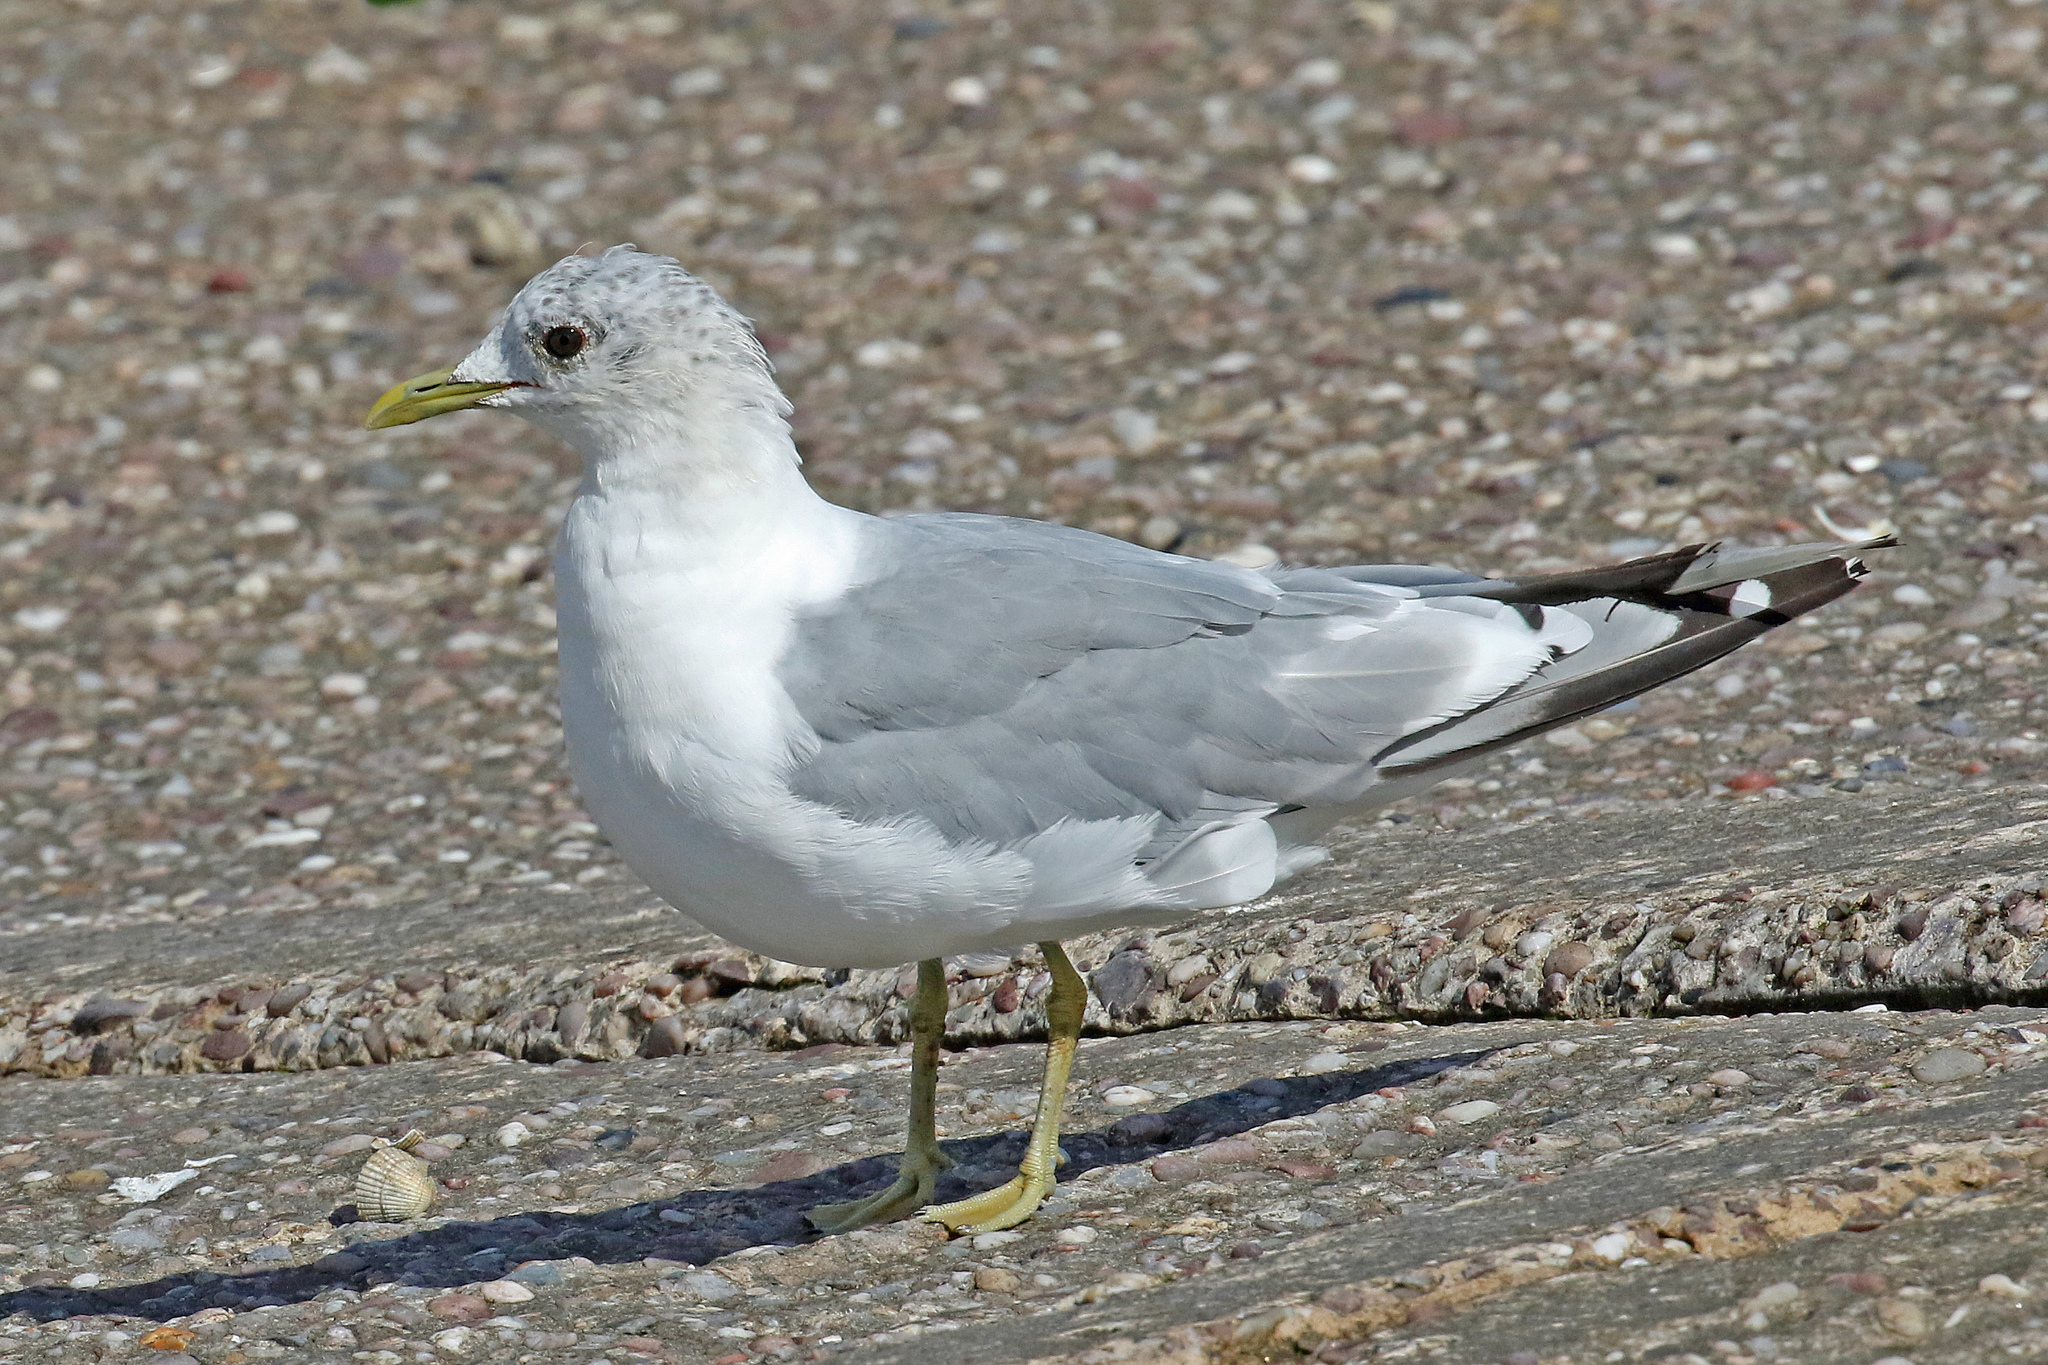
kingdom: Animalia
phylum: Chordata
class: Aves
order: Charadriiformes
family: Laridae
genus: Larus
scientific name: Larus canus
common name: Mew gull
